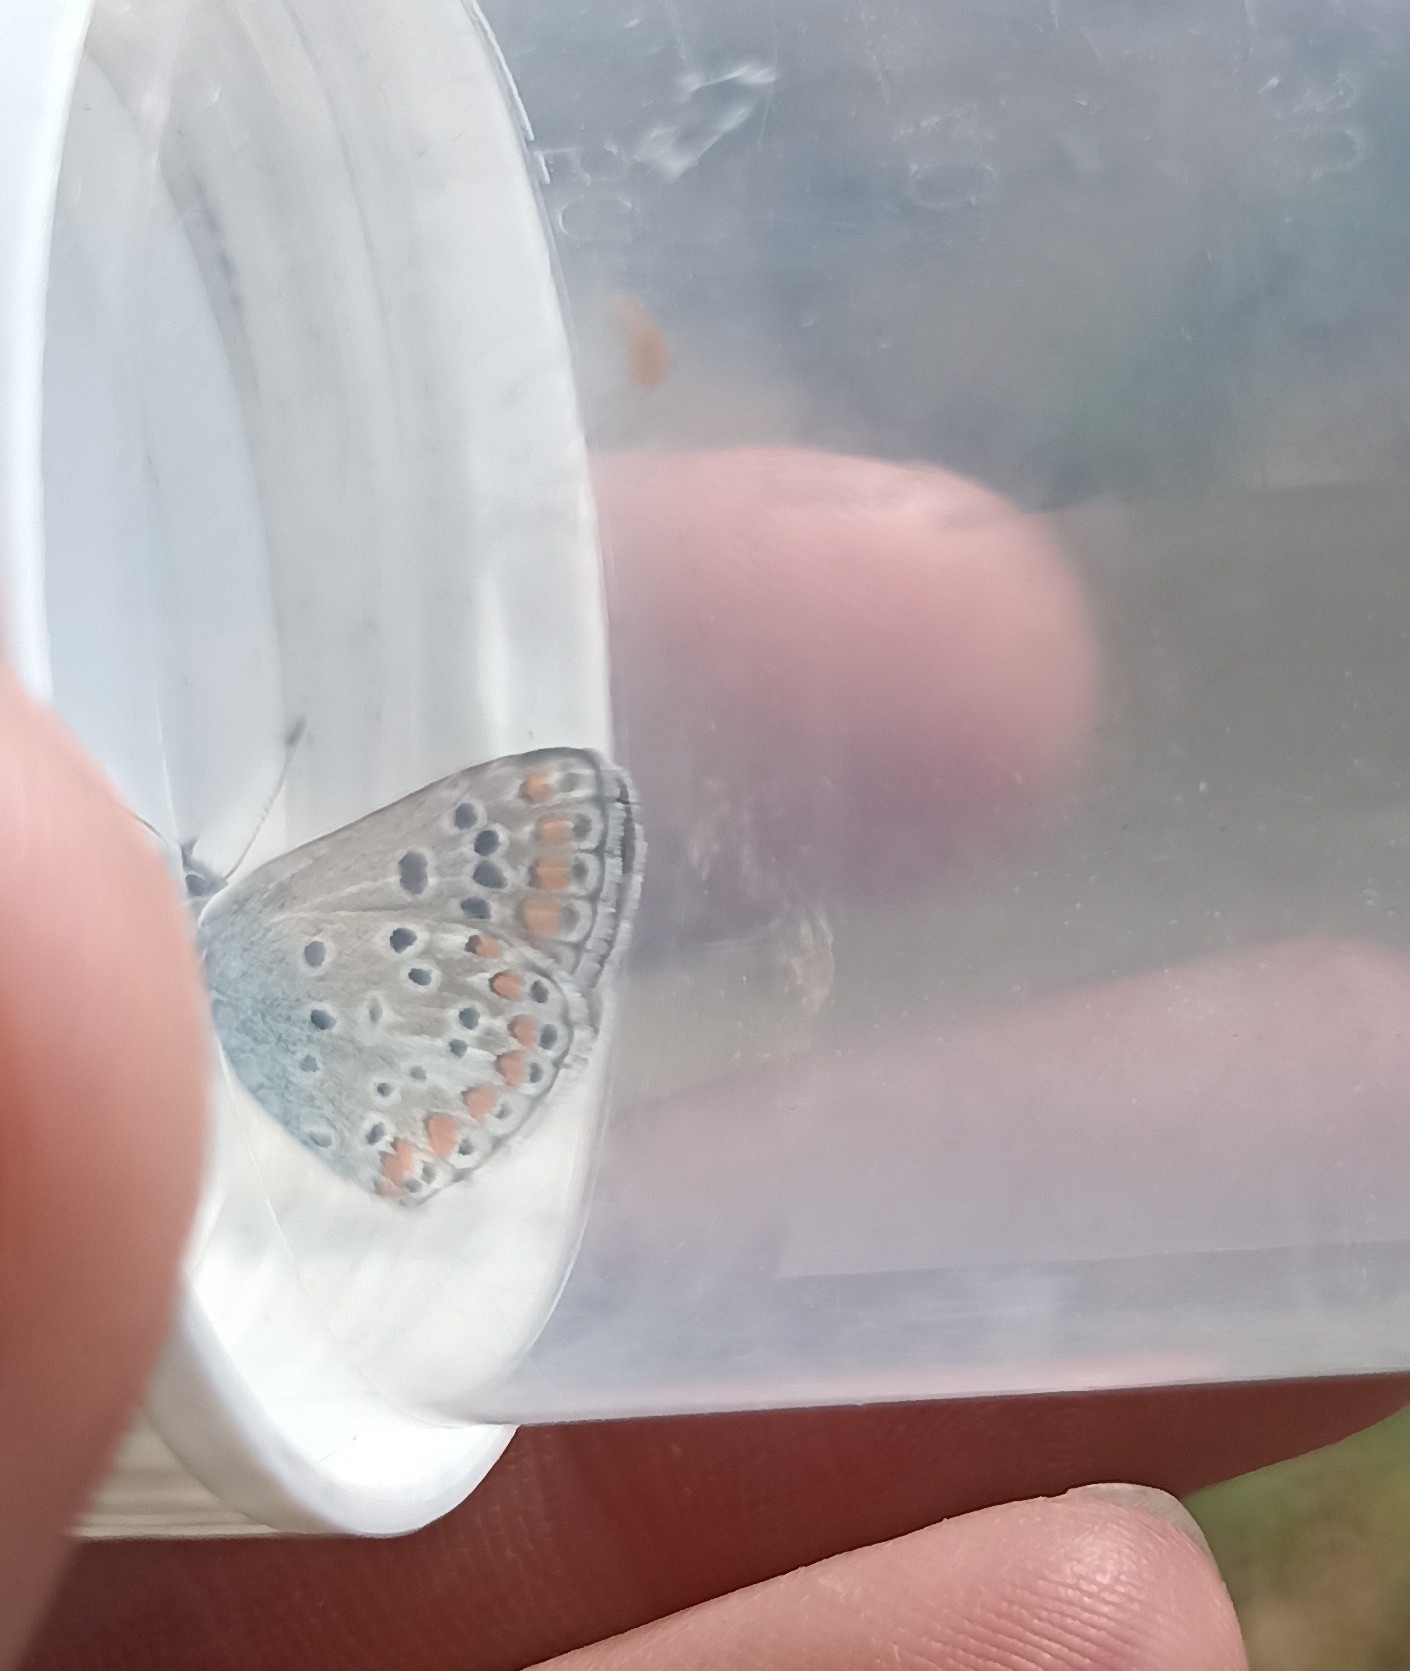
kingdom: Animalia
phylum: Arthropoda
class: Insecta
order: Lepidoptera
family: Lycaenidae
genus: Aricia
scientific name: Aricia agestis
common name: Brown argus
